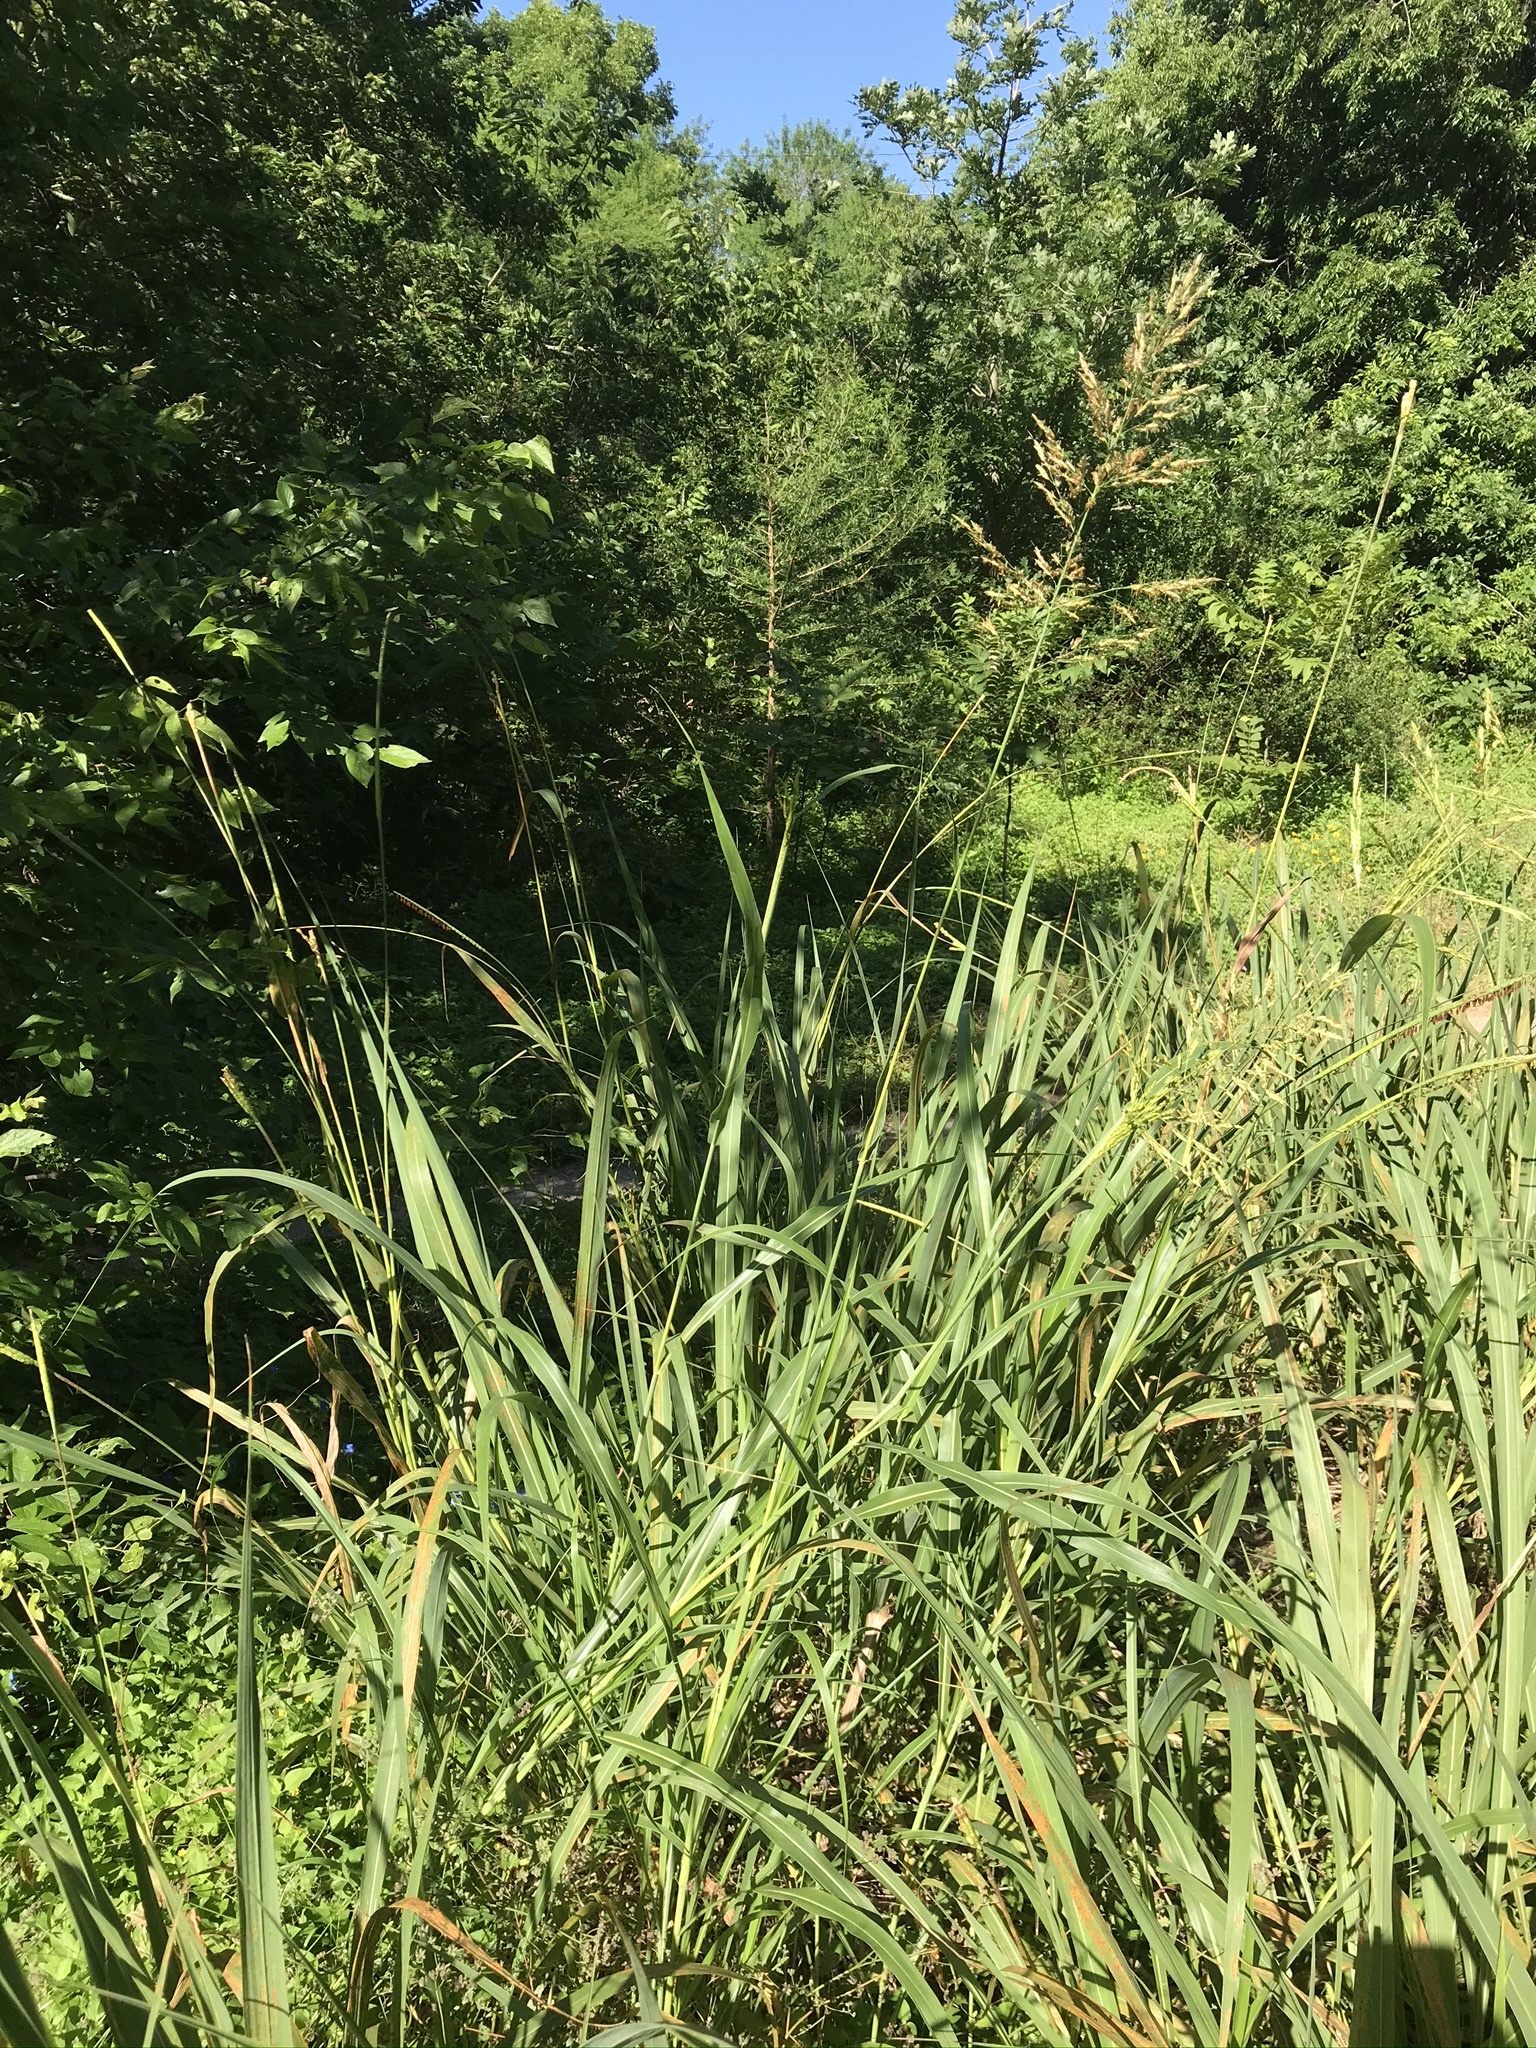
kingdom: Plantae
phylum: Tracheophyta
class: Liliopsida
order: Poales
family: Poaceae
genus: Sorghum
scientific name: Sorghum halepense
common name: Johnson-grass
